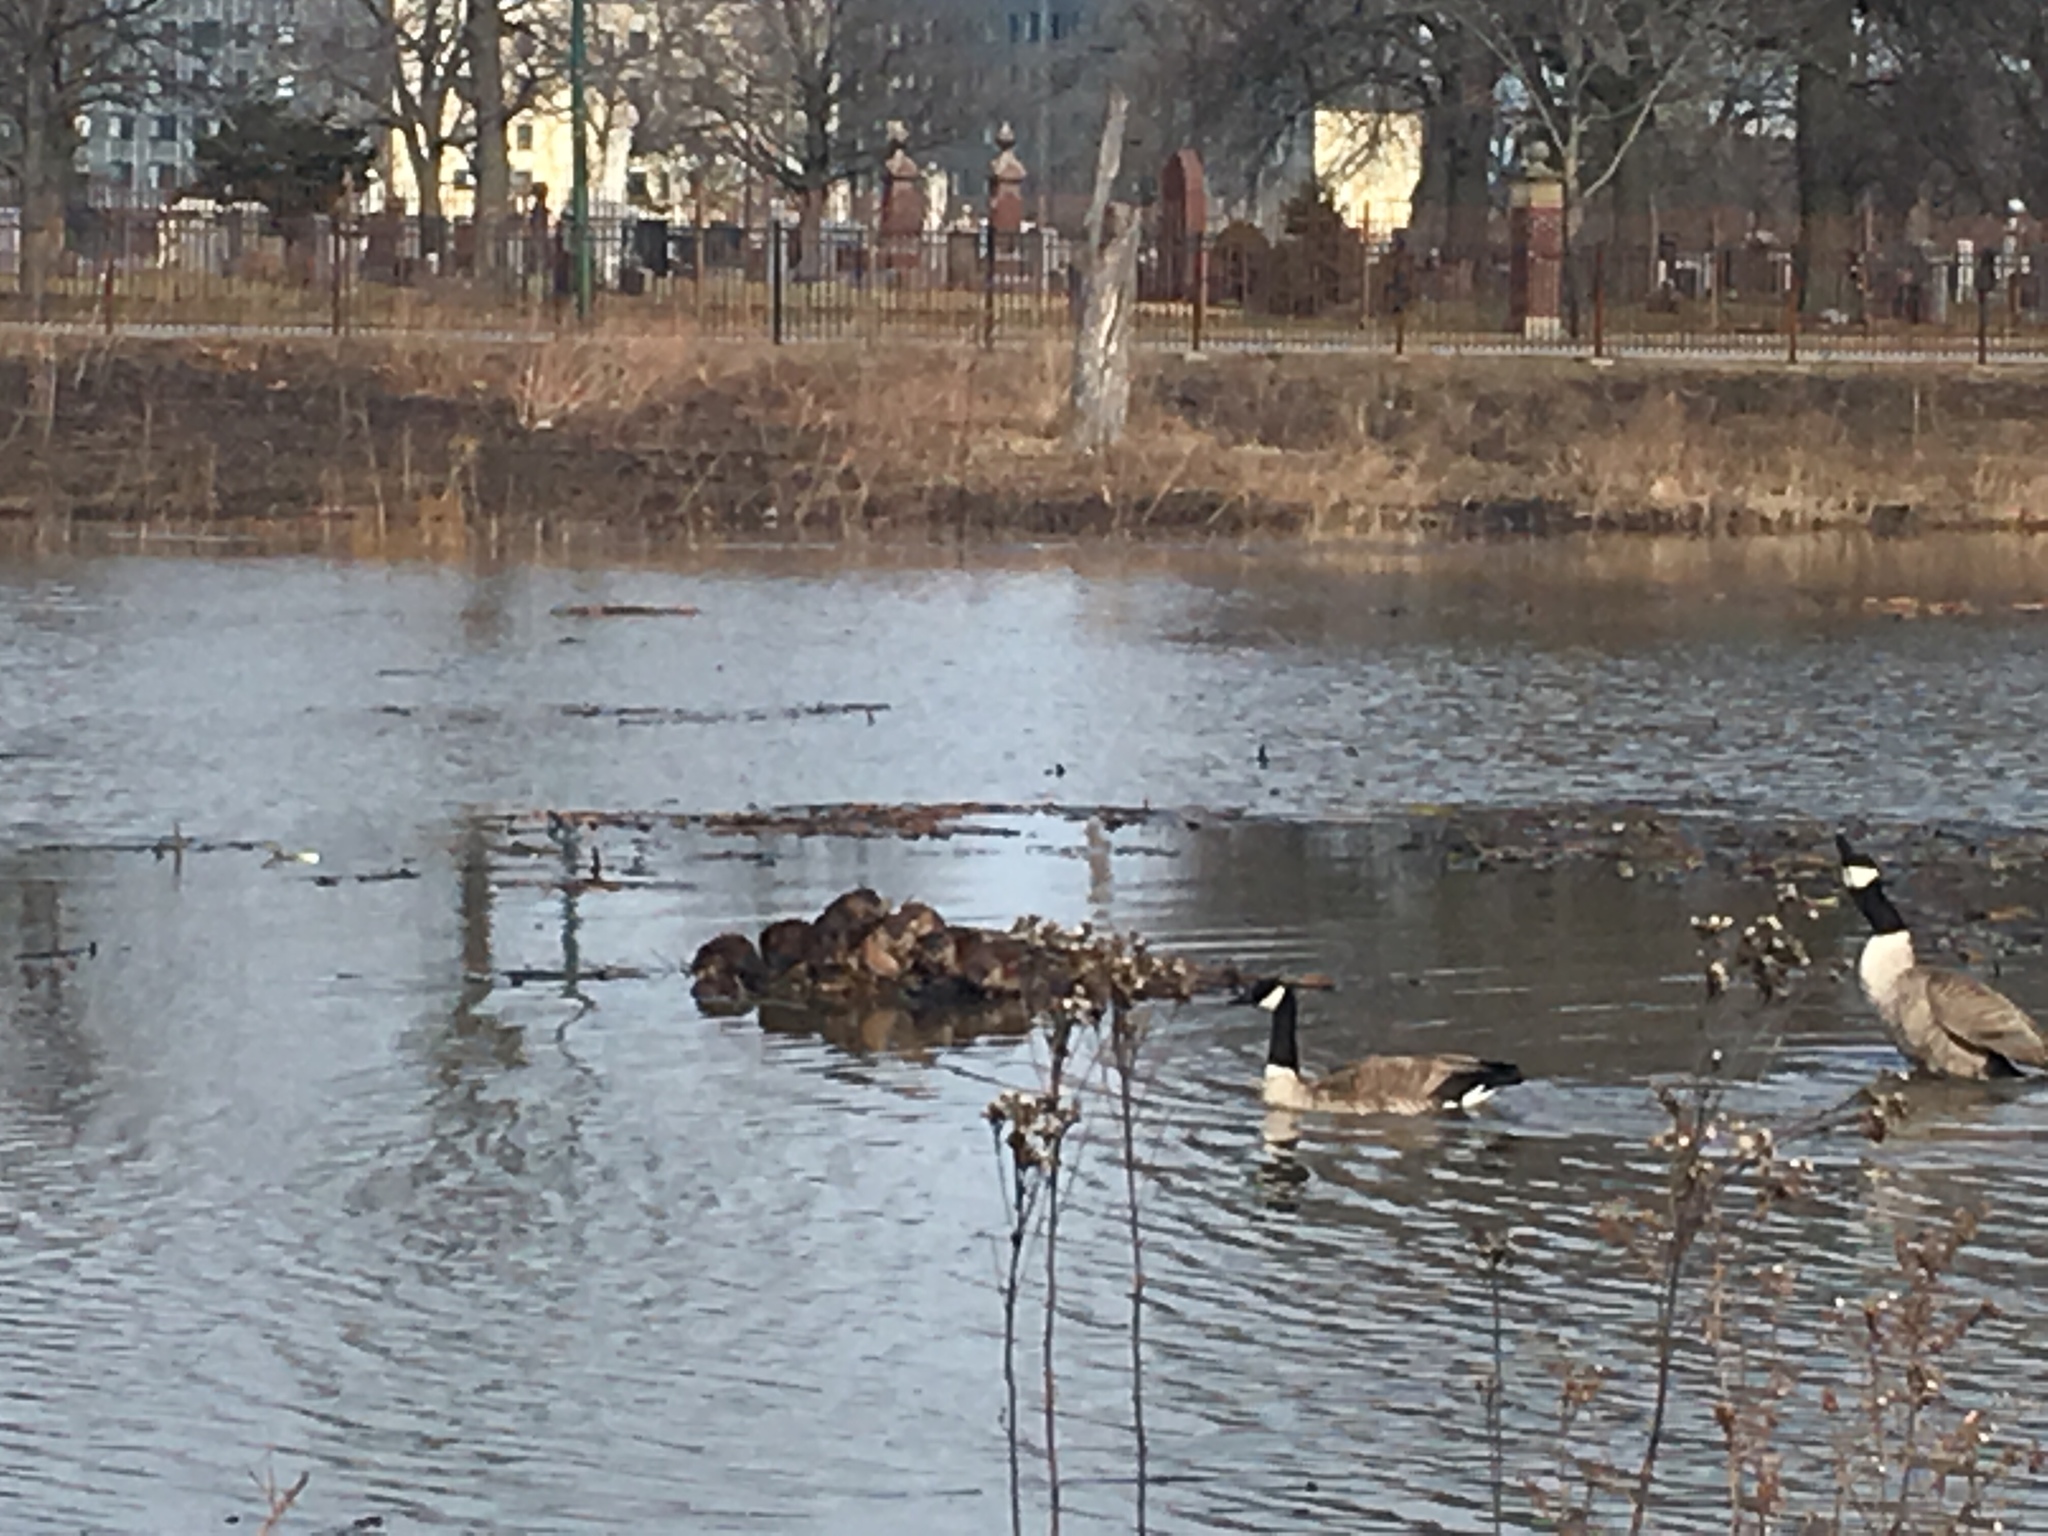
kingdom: Animalia
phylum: Chordata
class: Mammalia
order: Rodentia
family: Cricetidae
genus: Ondatra
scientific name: Ondatra zibethicus
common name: Muskrat
